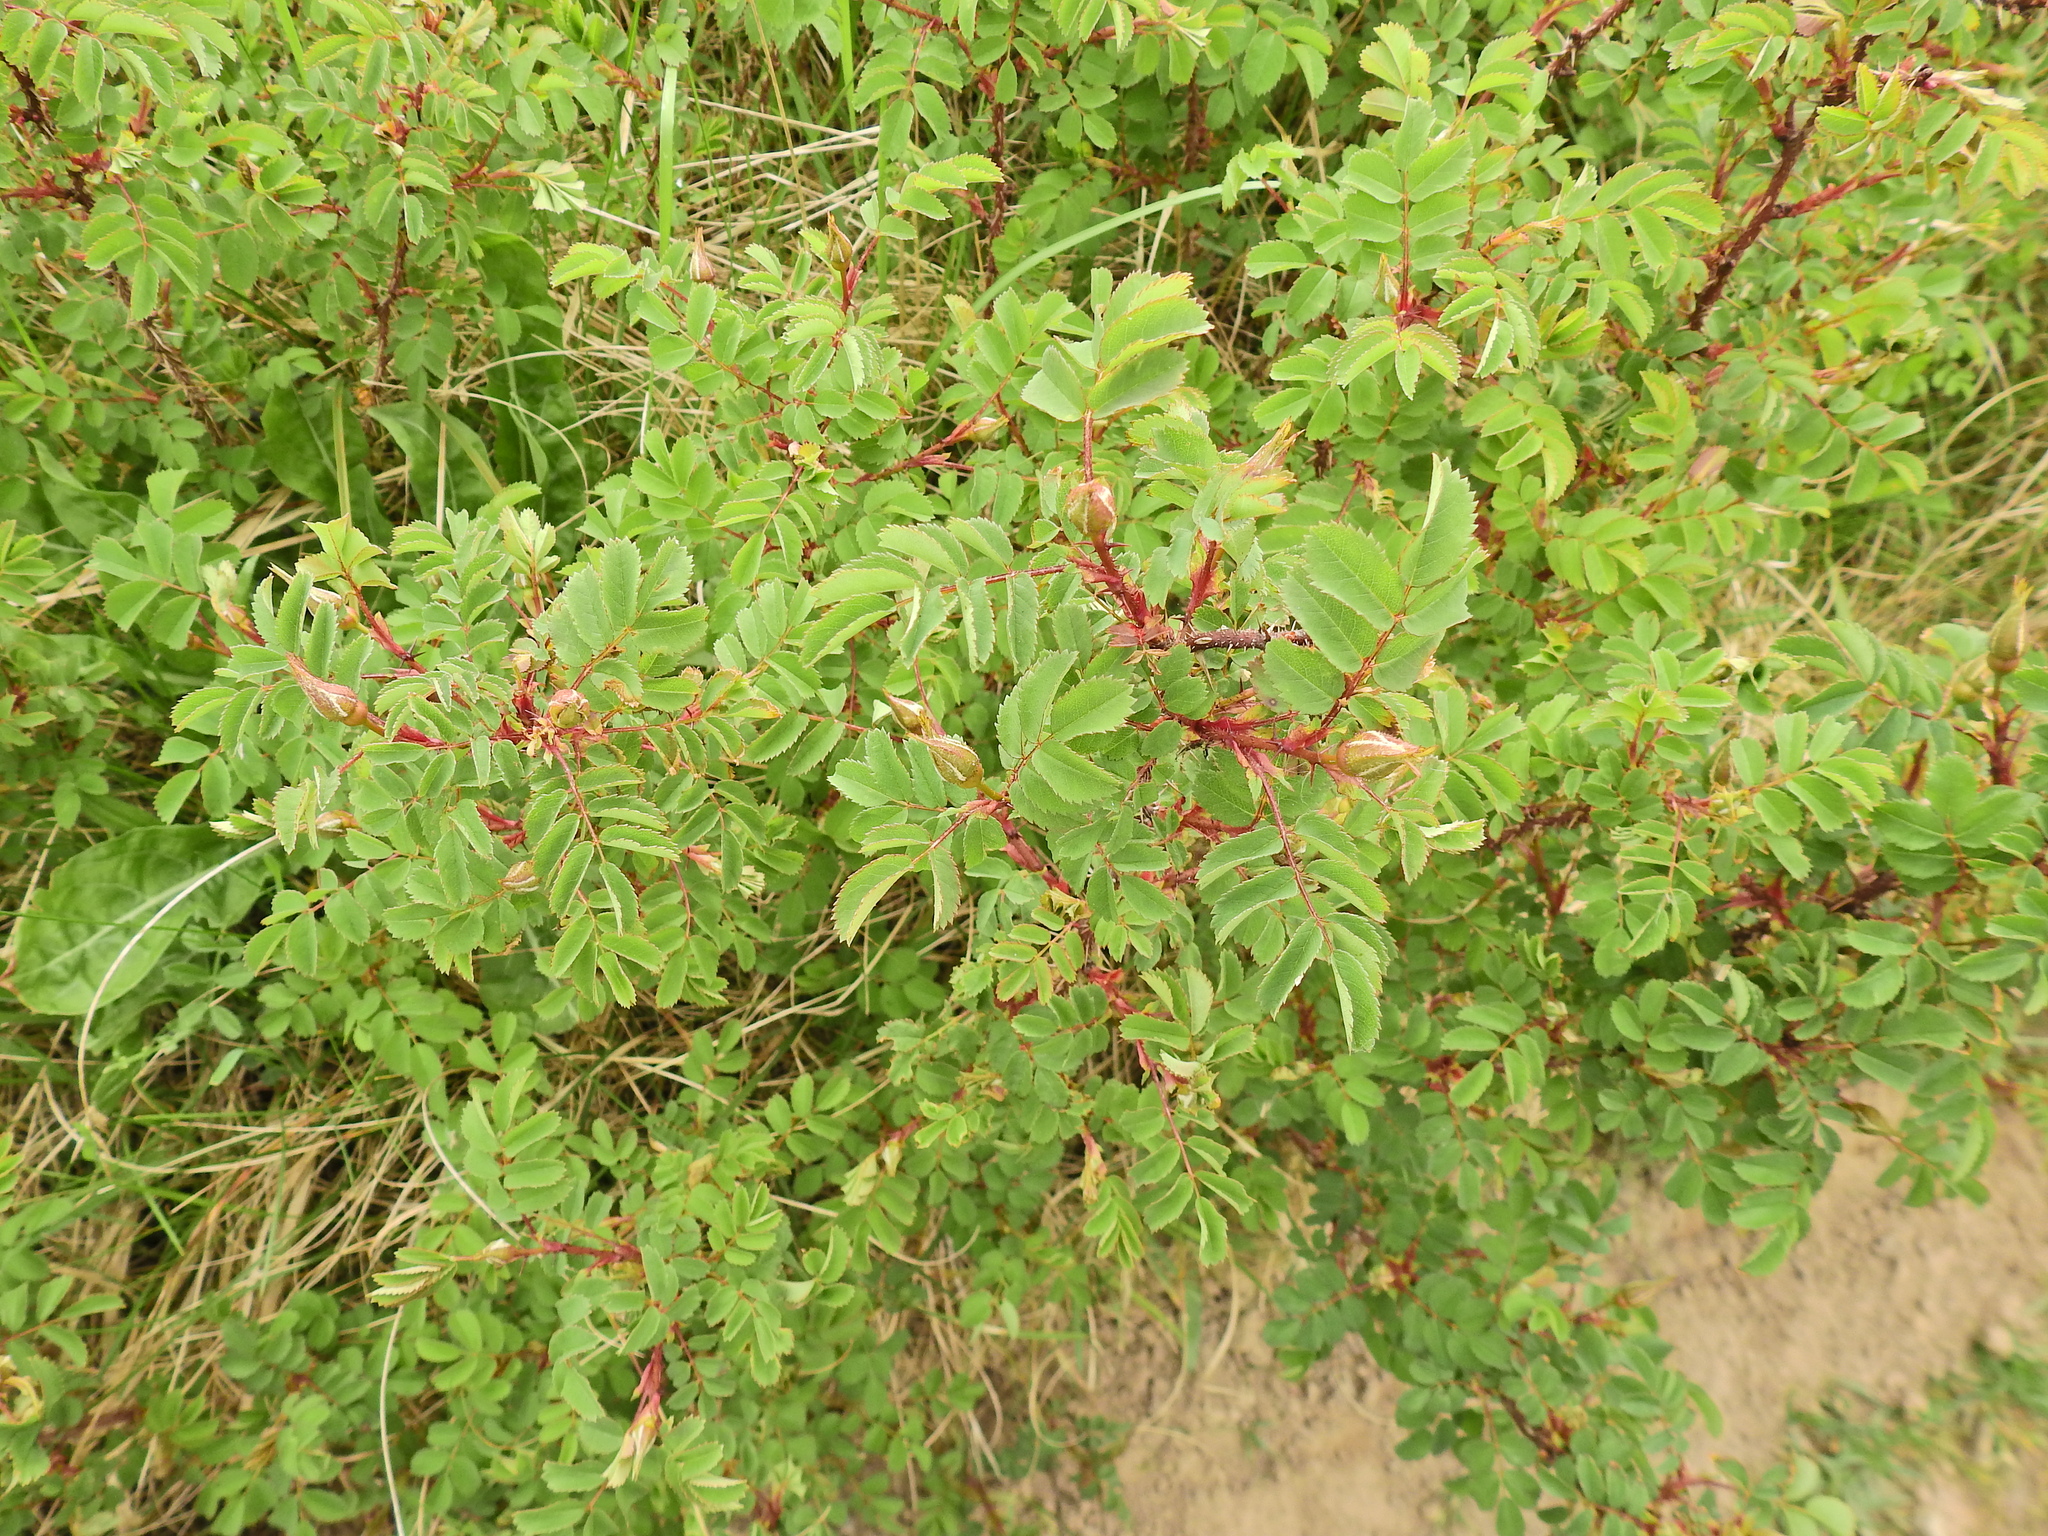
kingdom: Plantae
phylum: Tracheophyta
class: Magnoliopsida
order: Rosales
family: Rosaceae
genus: Rosa
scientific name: Rosa spinosissima
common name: Burnet rose
